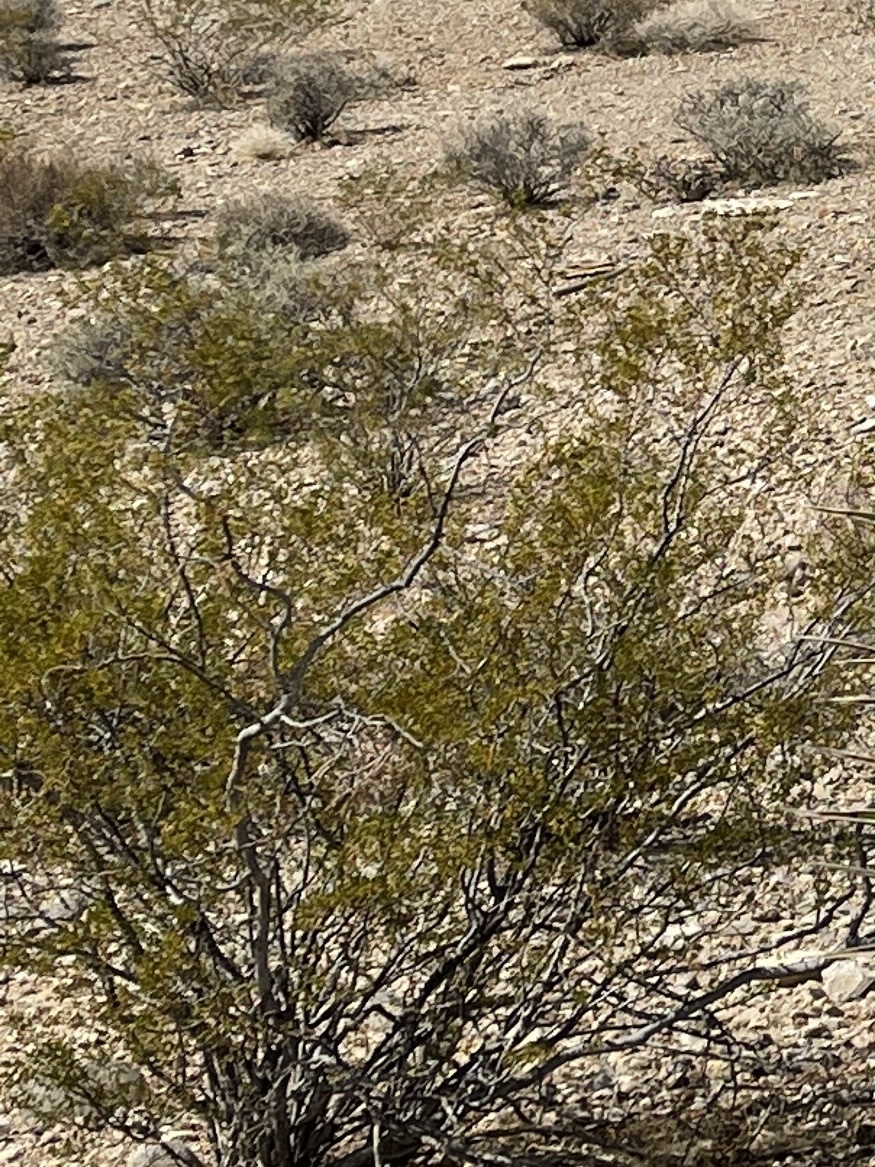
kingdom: Plantae
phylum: Tracheophyta
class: Magnoliopsida
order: Zygophyllales
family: Zygophyllaceae
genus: Larrea
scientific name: Larrea tridentata
